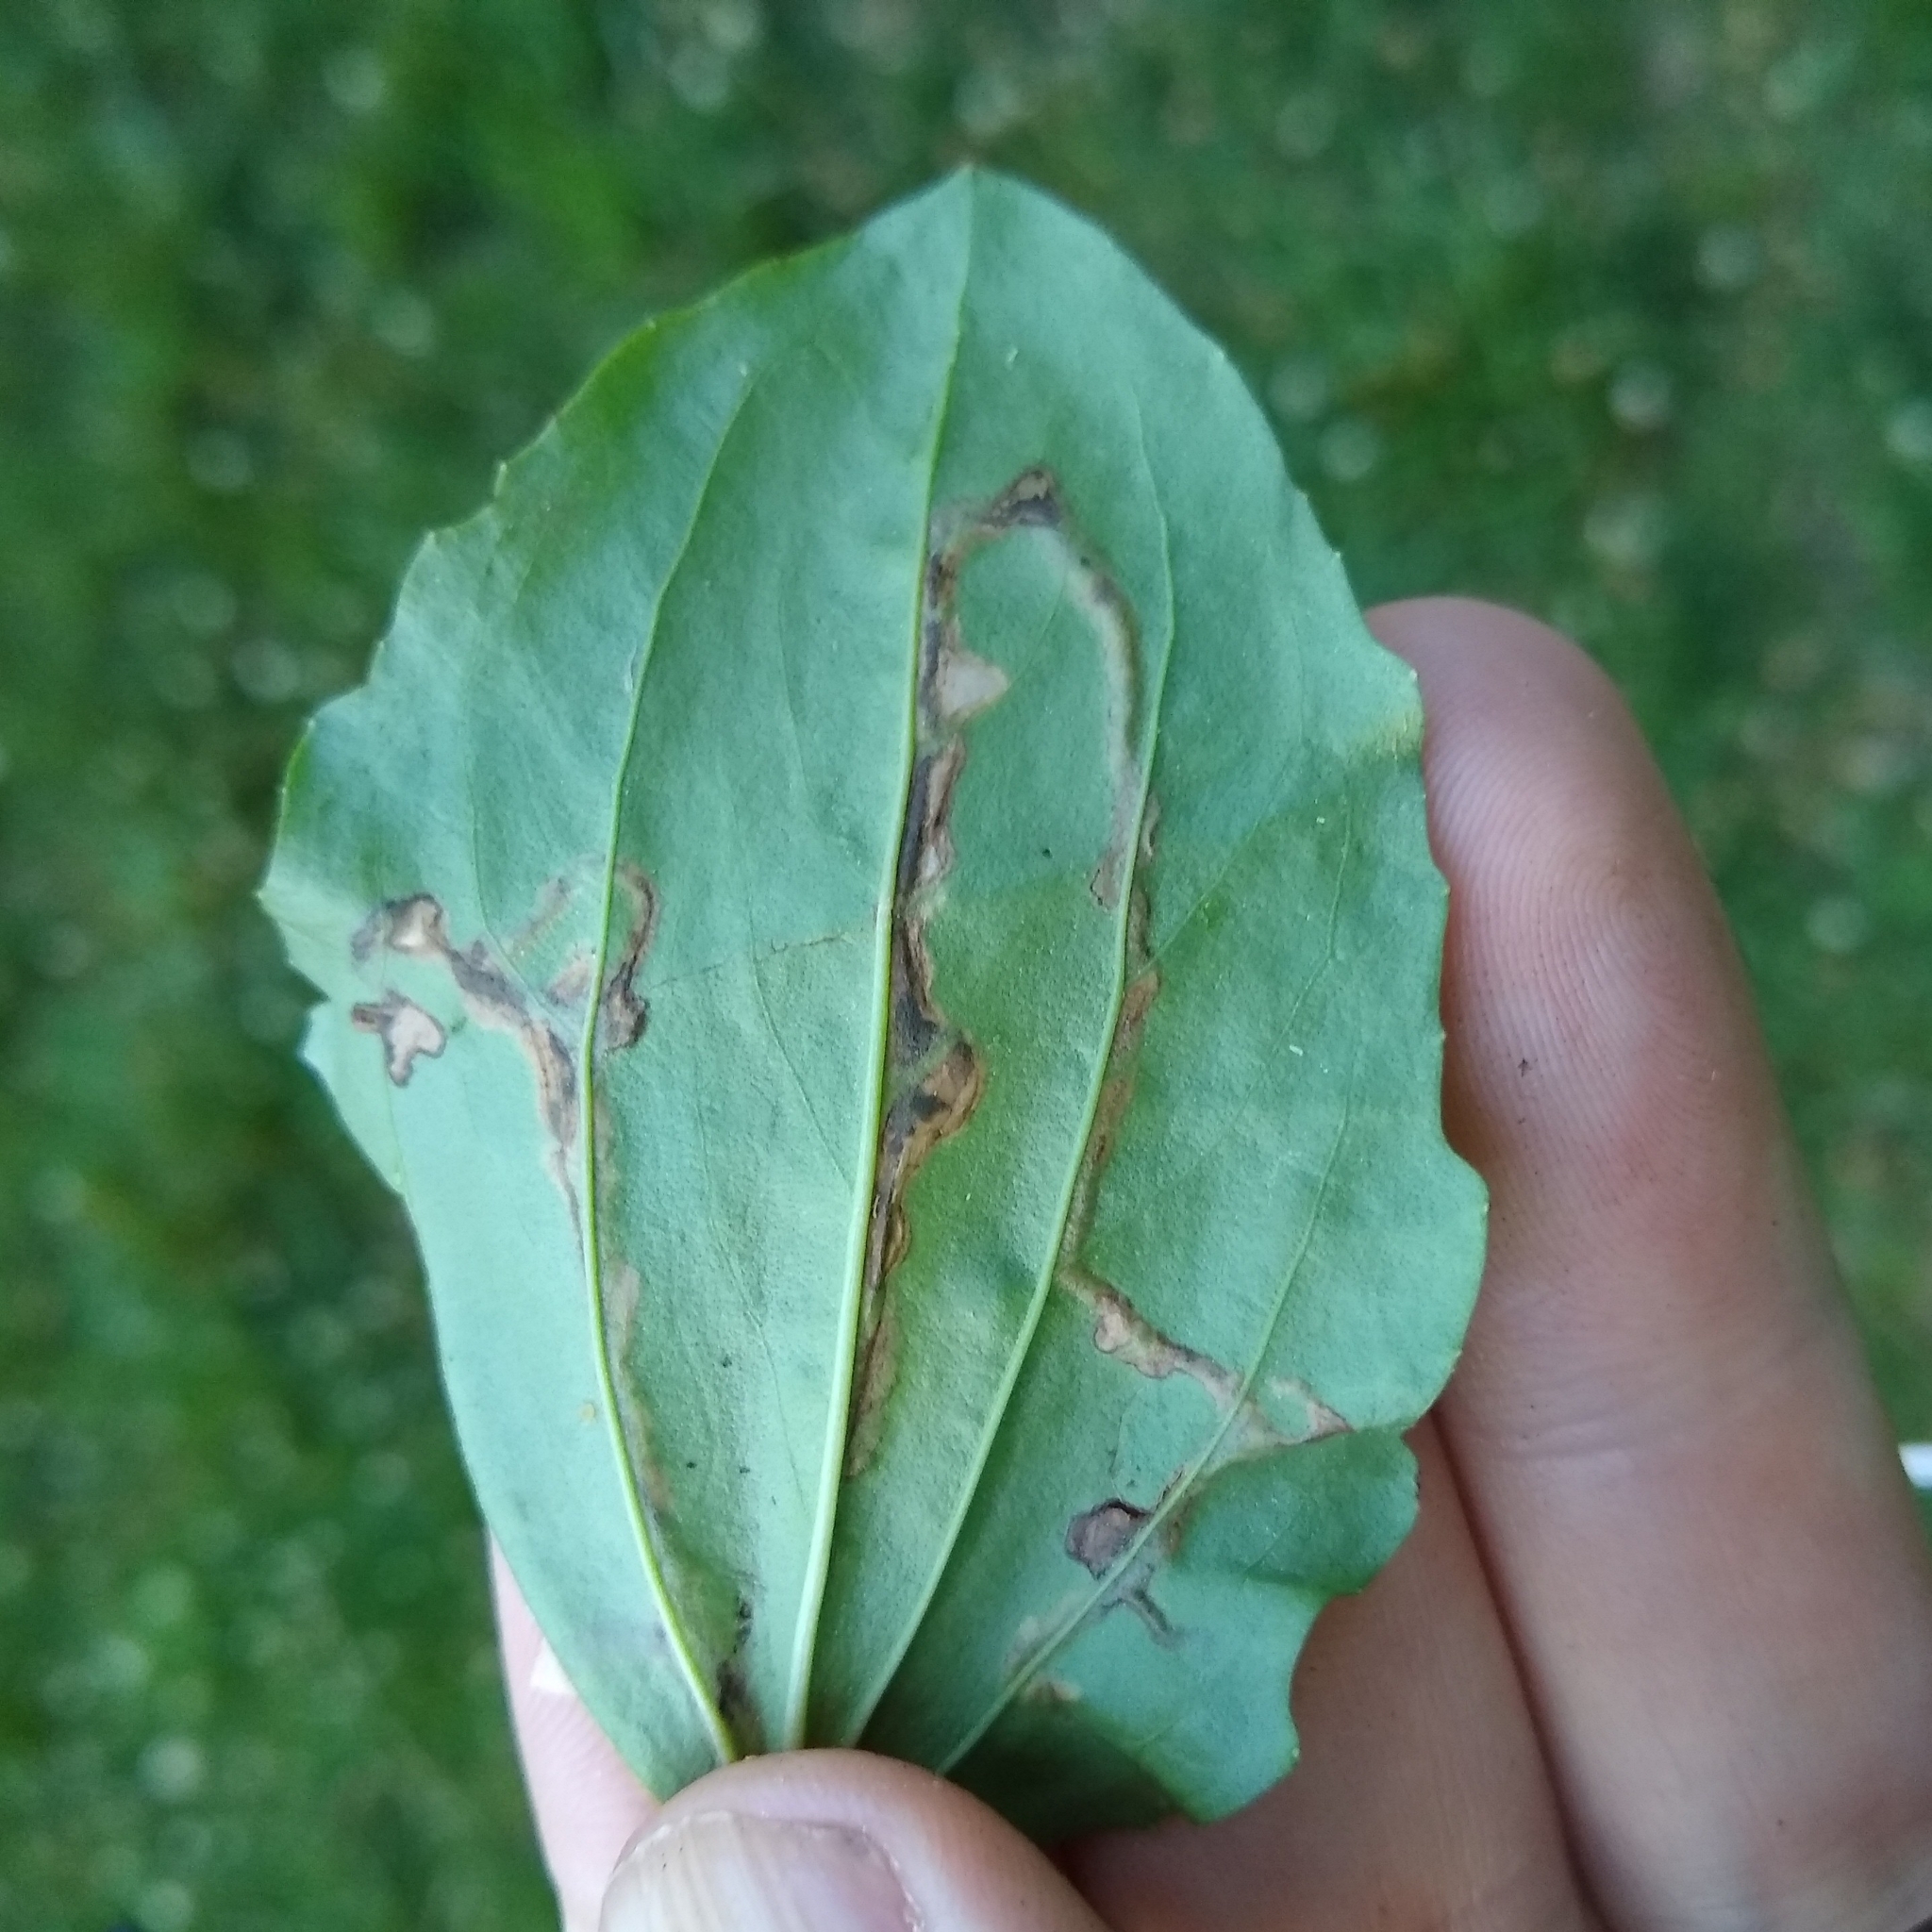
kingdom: Animalia
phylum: Arthropoda
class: Insecta
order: Coleoptera
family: Chrysomelidae
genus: Dibolia
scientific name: Dibolia borealis
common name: Northern plantain flea beetle
